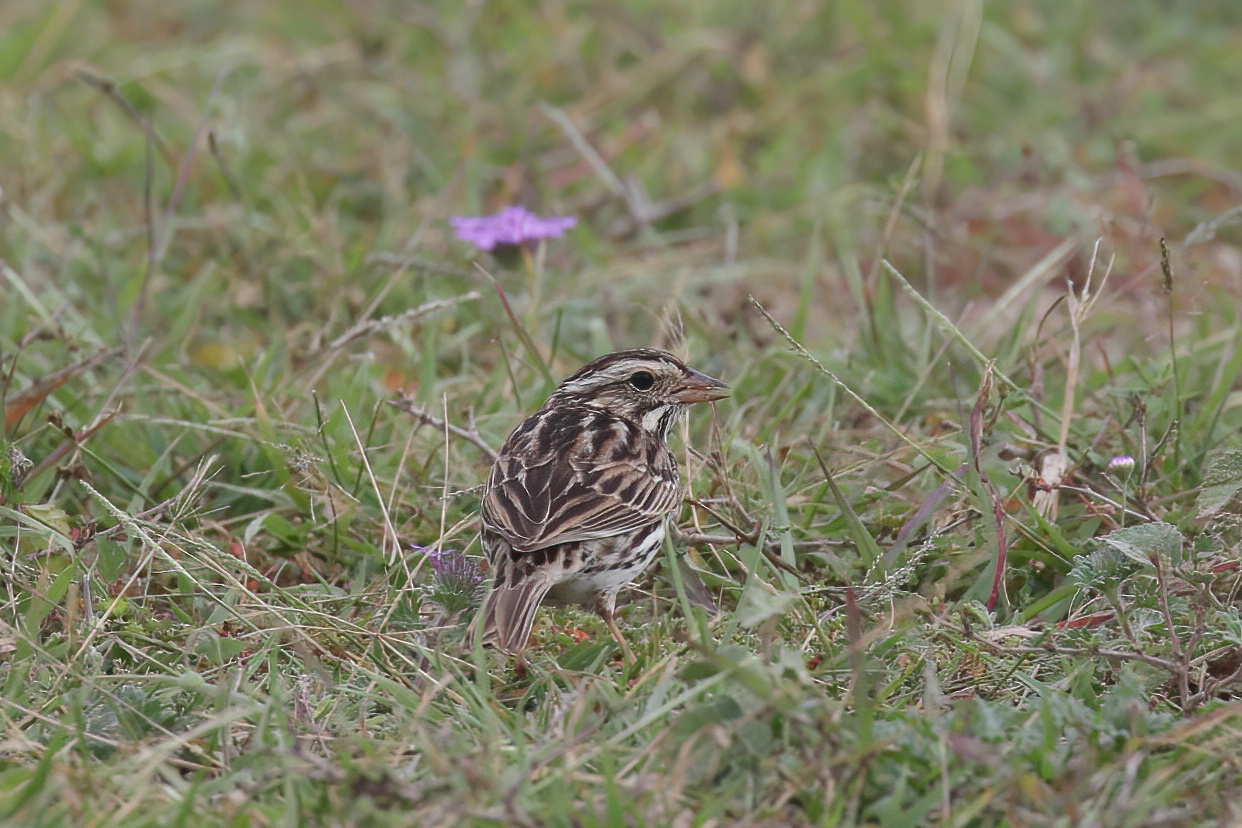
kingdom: Animalia
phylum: Chordata
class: Aves
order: Passeriformes
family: Passerellidae
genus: Passerculus
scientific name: Passerculus sandwichensis
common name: Savannah sparrow
